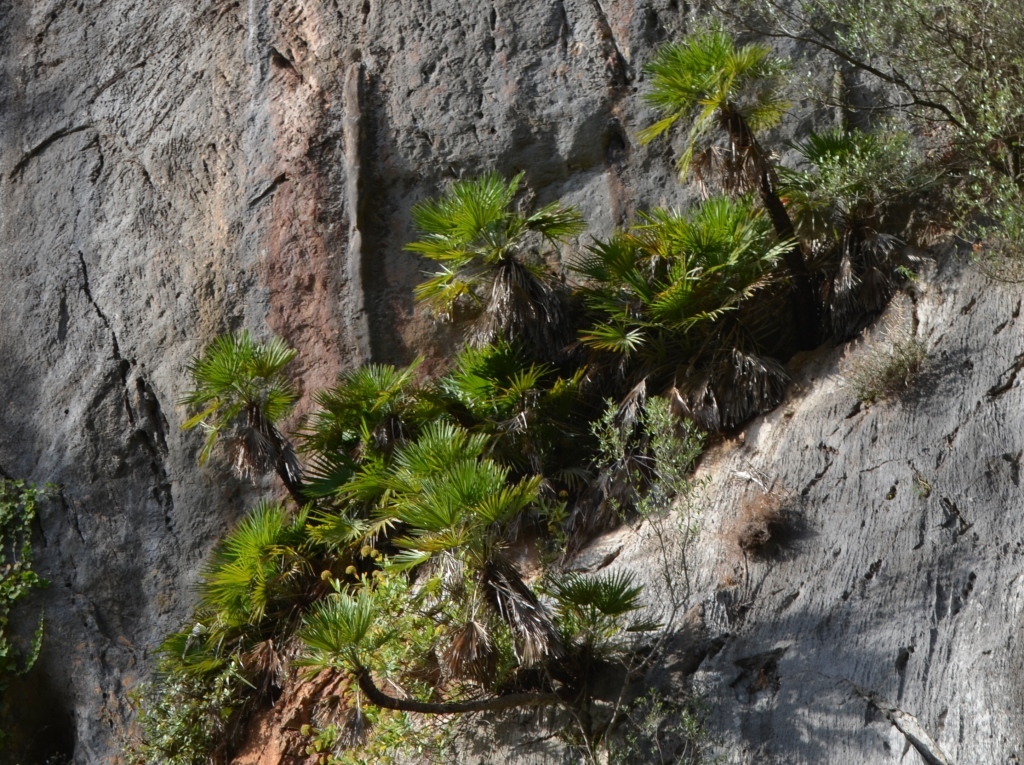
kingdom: Plantae
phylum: Tracheophyta
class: Liliopsida
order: Arecales
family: Arecaceae
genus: Chamaerops
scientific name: Chamaerops humilis
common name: Dwarf fan palm
